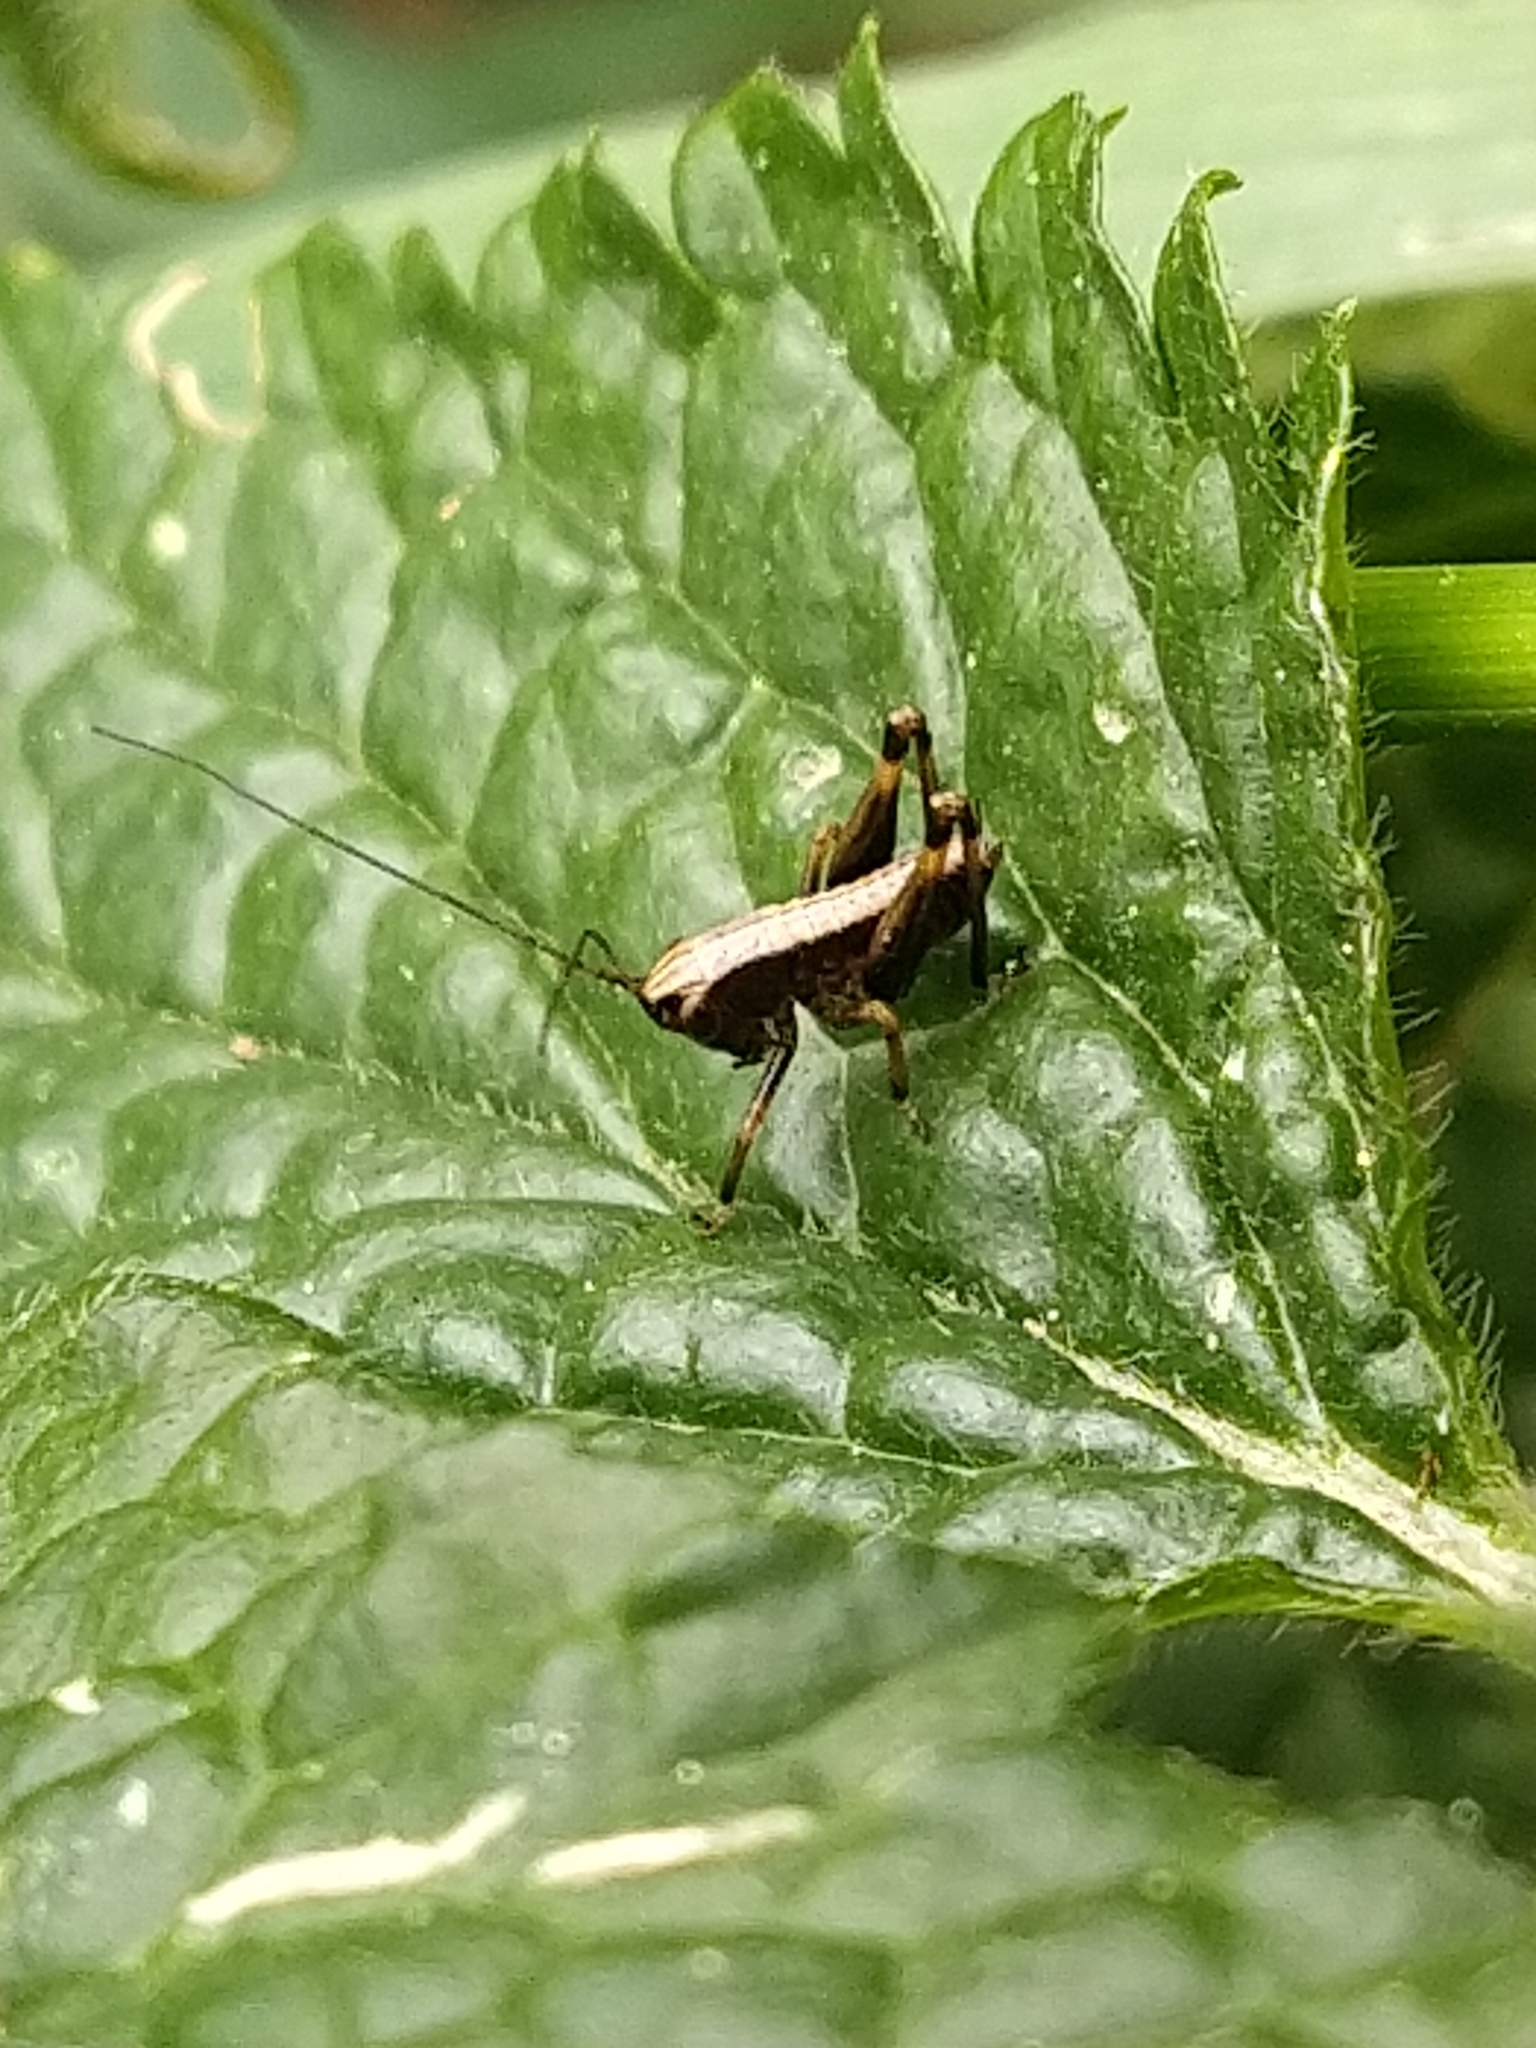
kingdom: Animalia
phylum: Arthropoda
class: Insecta
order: Orthoptera
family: Tettigoniidae
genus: Pholidoptera
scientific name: Pholidoptera griseoaptera
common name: Dark bush-cricket
